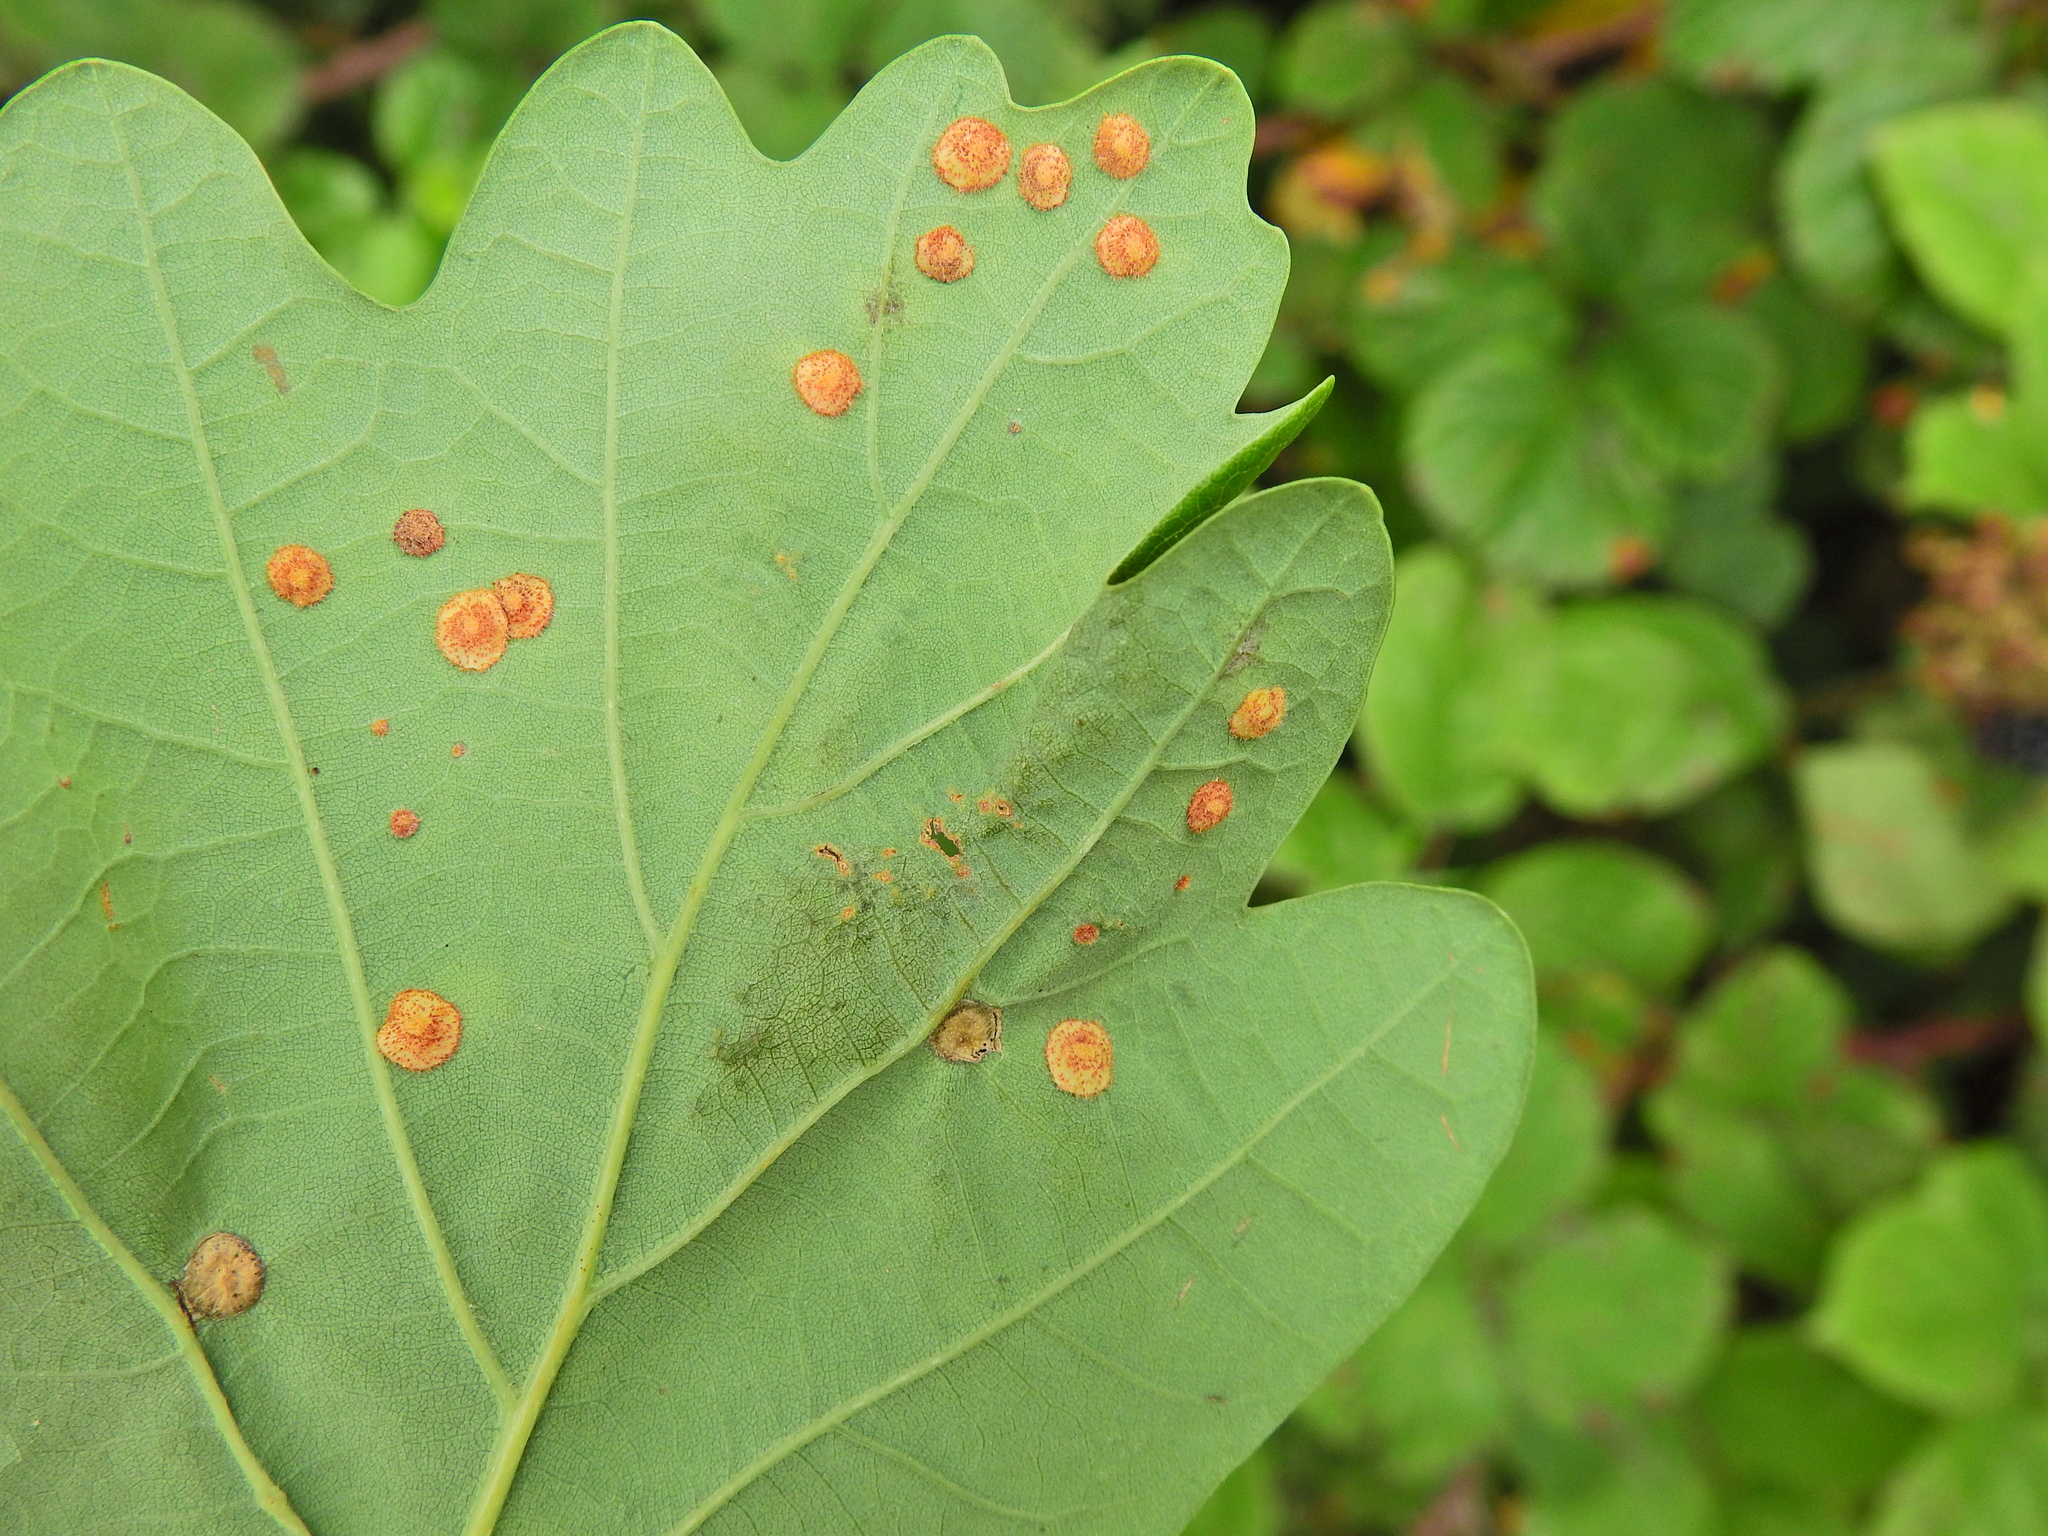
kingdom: Animalia
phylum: Arthropoda
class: Insecta
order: Hymenoptera
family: Cynipidae
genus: Neuroterus
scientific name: Neuroterus quercusbaccarum
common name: Common spangle gall
